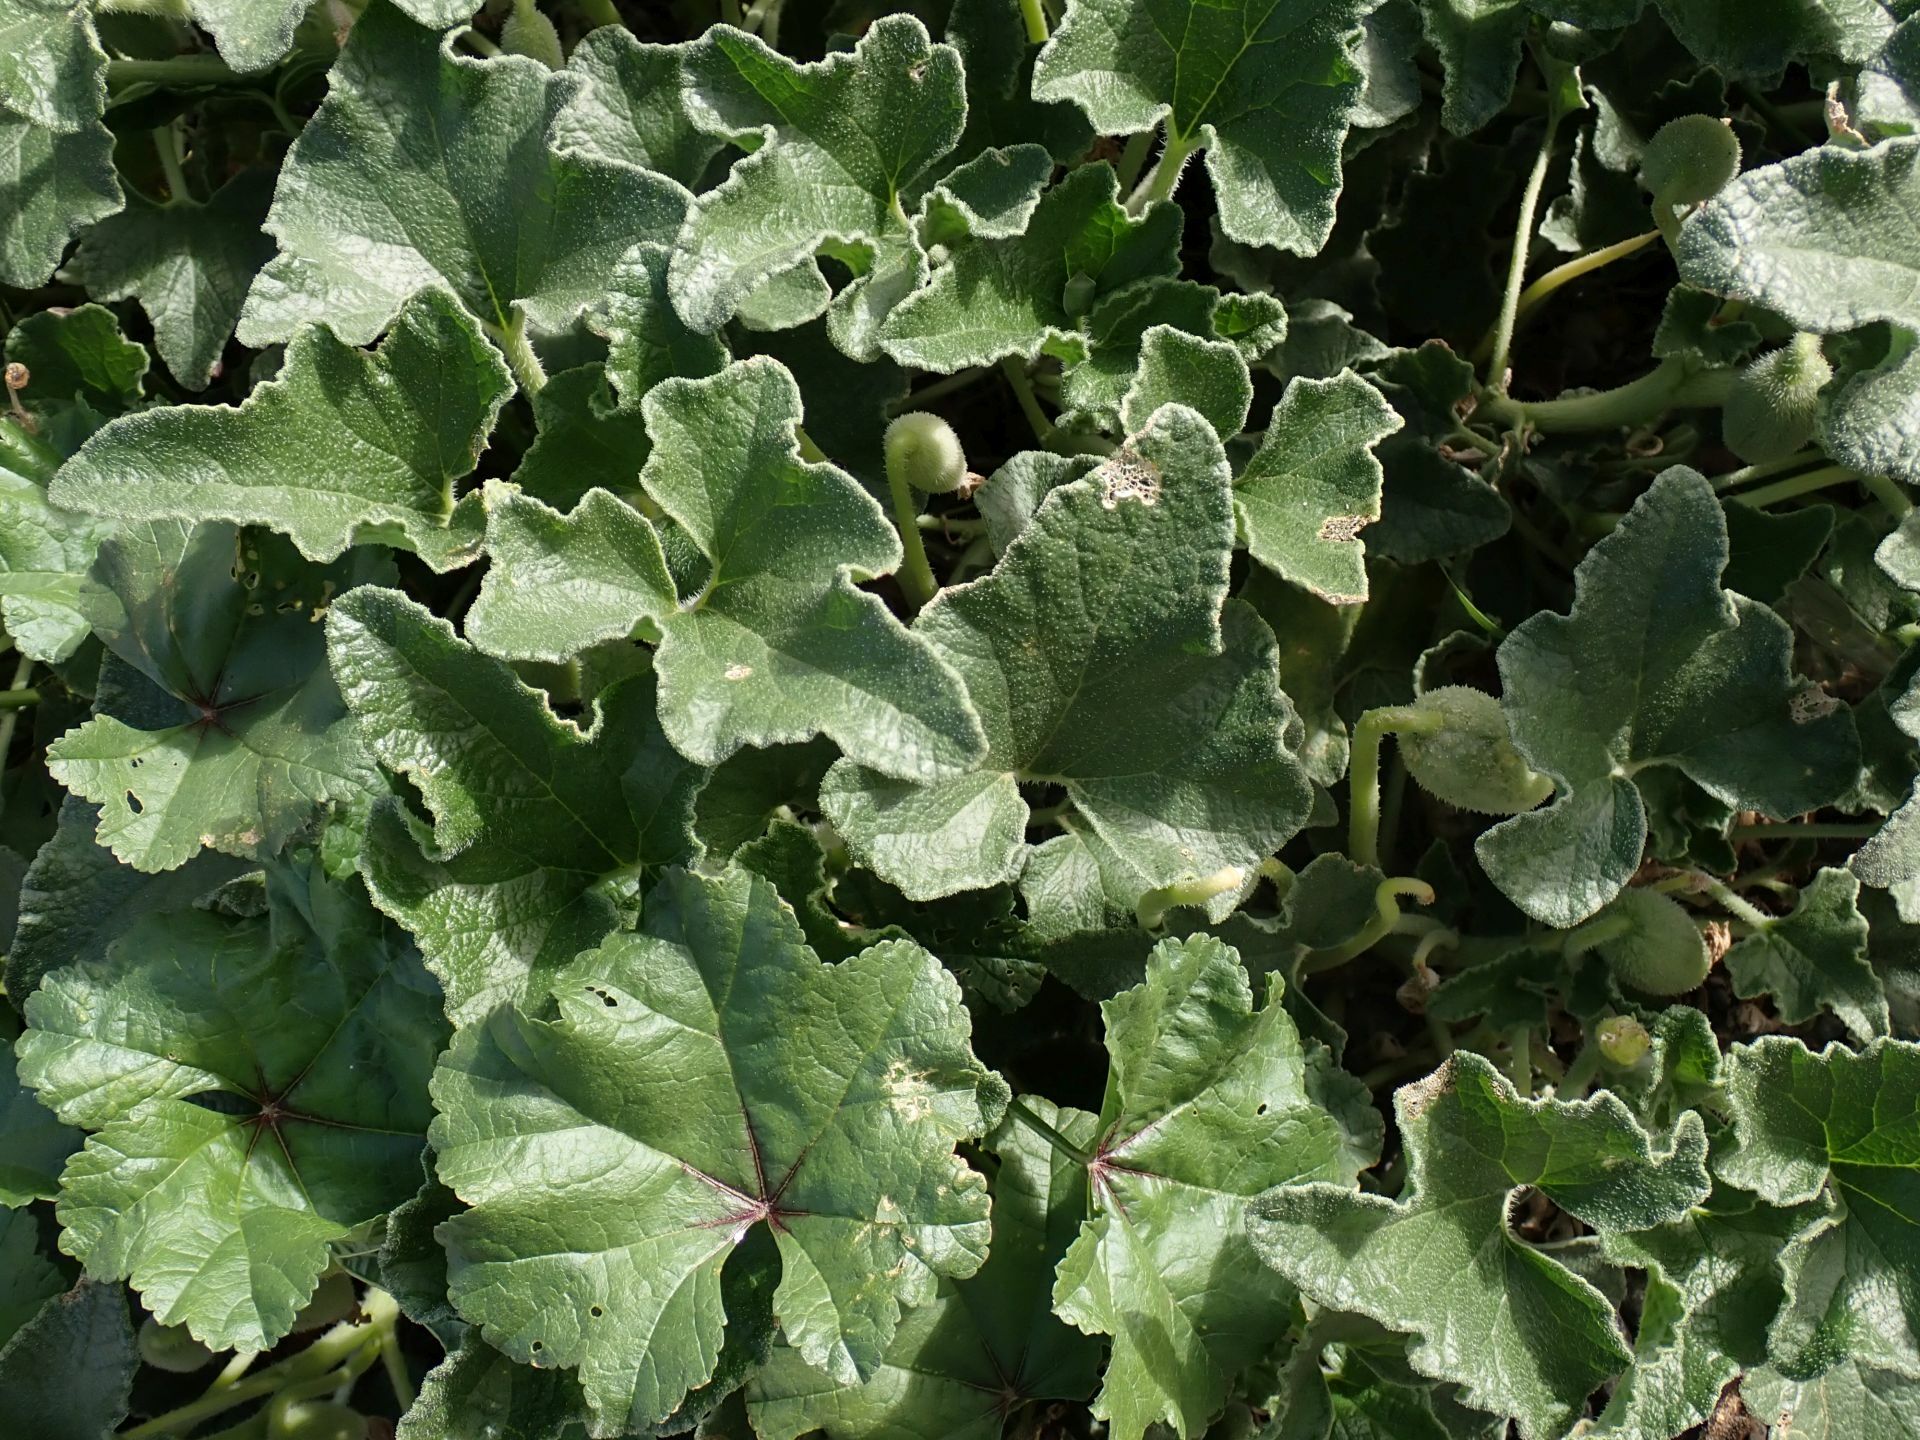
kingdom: Plantae
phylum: Tracheophyta
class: Magnoliopsida
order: Cucurbitales
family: Cucurbitaceae
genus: Ecballium
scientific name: Ecballium elaterium
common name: Squirting cucumber
